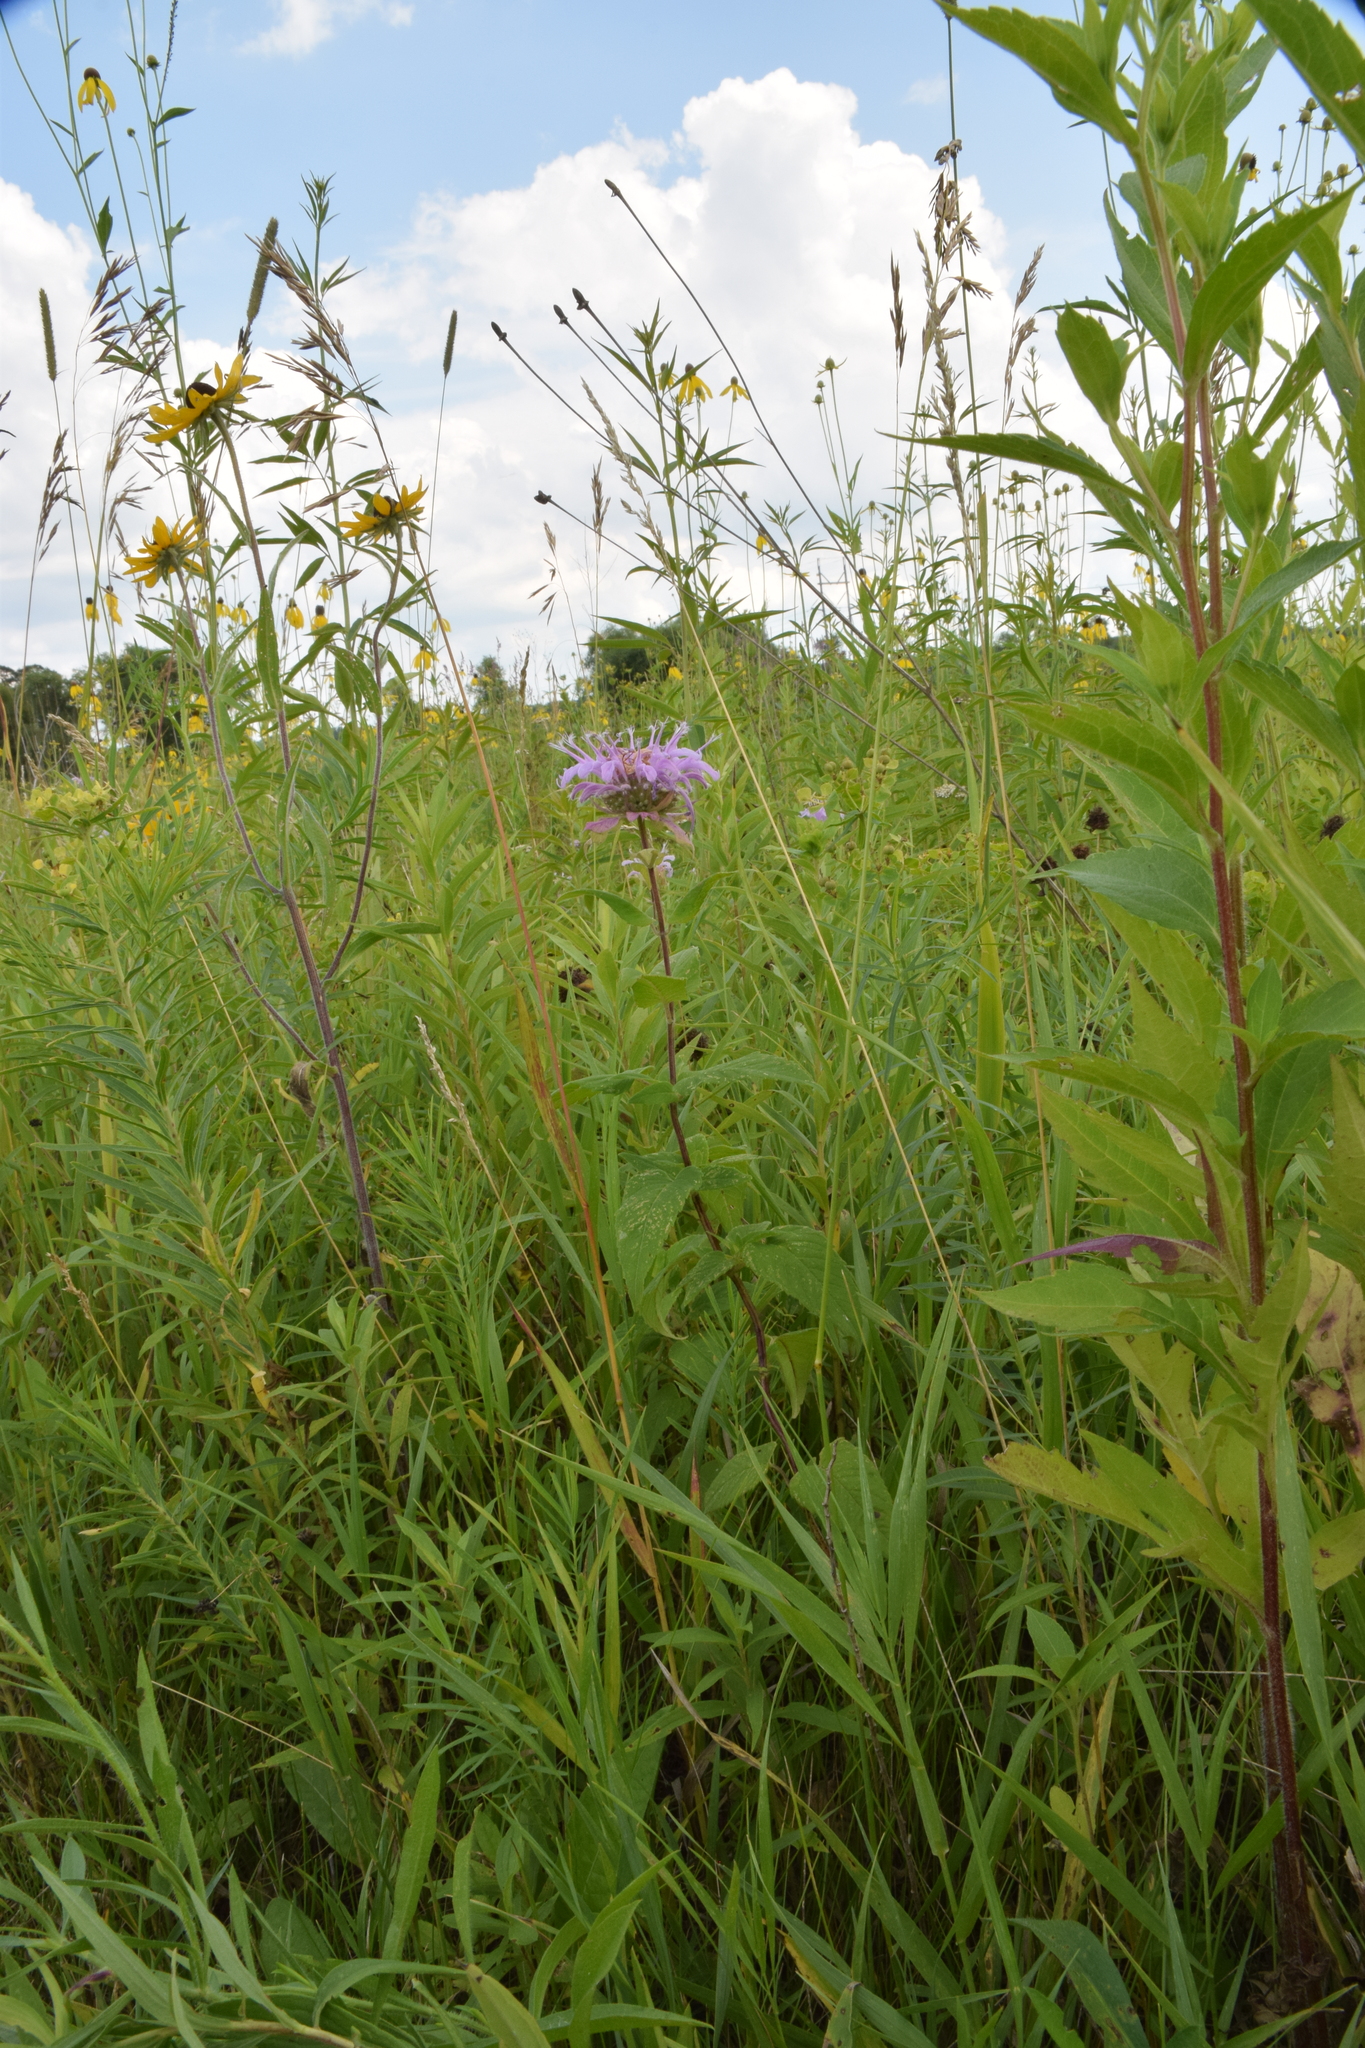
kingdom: Plantae
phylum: Tracheophyta
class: Magnoliopsida
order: Lamiales
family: Lamiaceae
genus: Monarda
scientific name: Monarda fistulosa
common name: Purple beebalm
